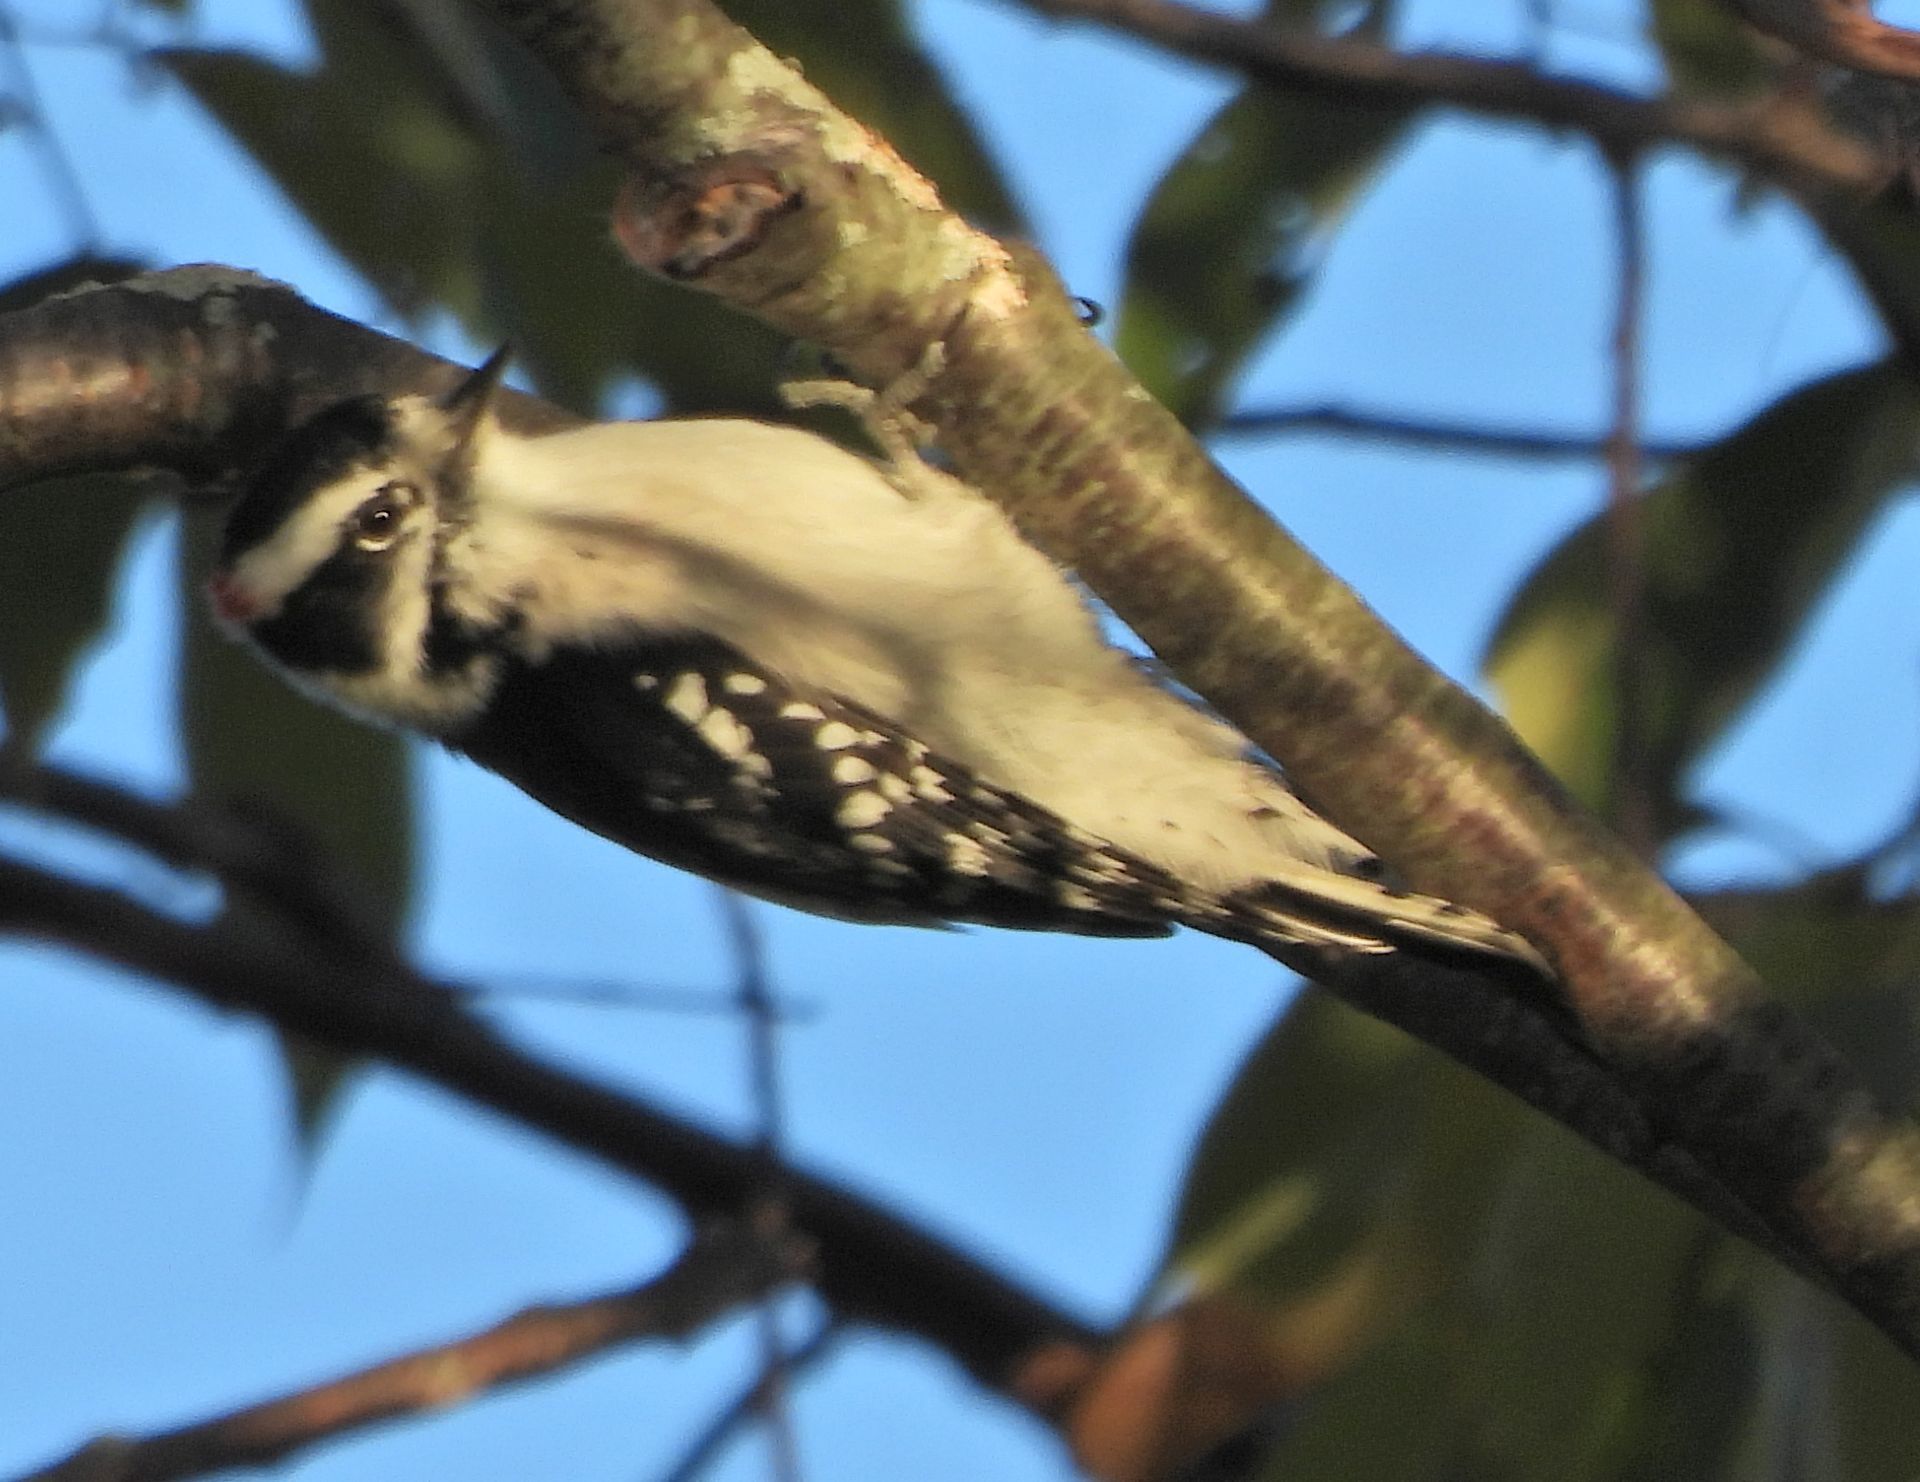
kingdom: Animalia
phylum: Chordata
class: Aves
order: Piciformes
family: Picidae
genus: Dryobates
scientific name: Dryobates pubescens
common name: Downy woodpecker
